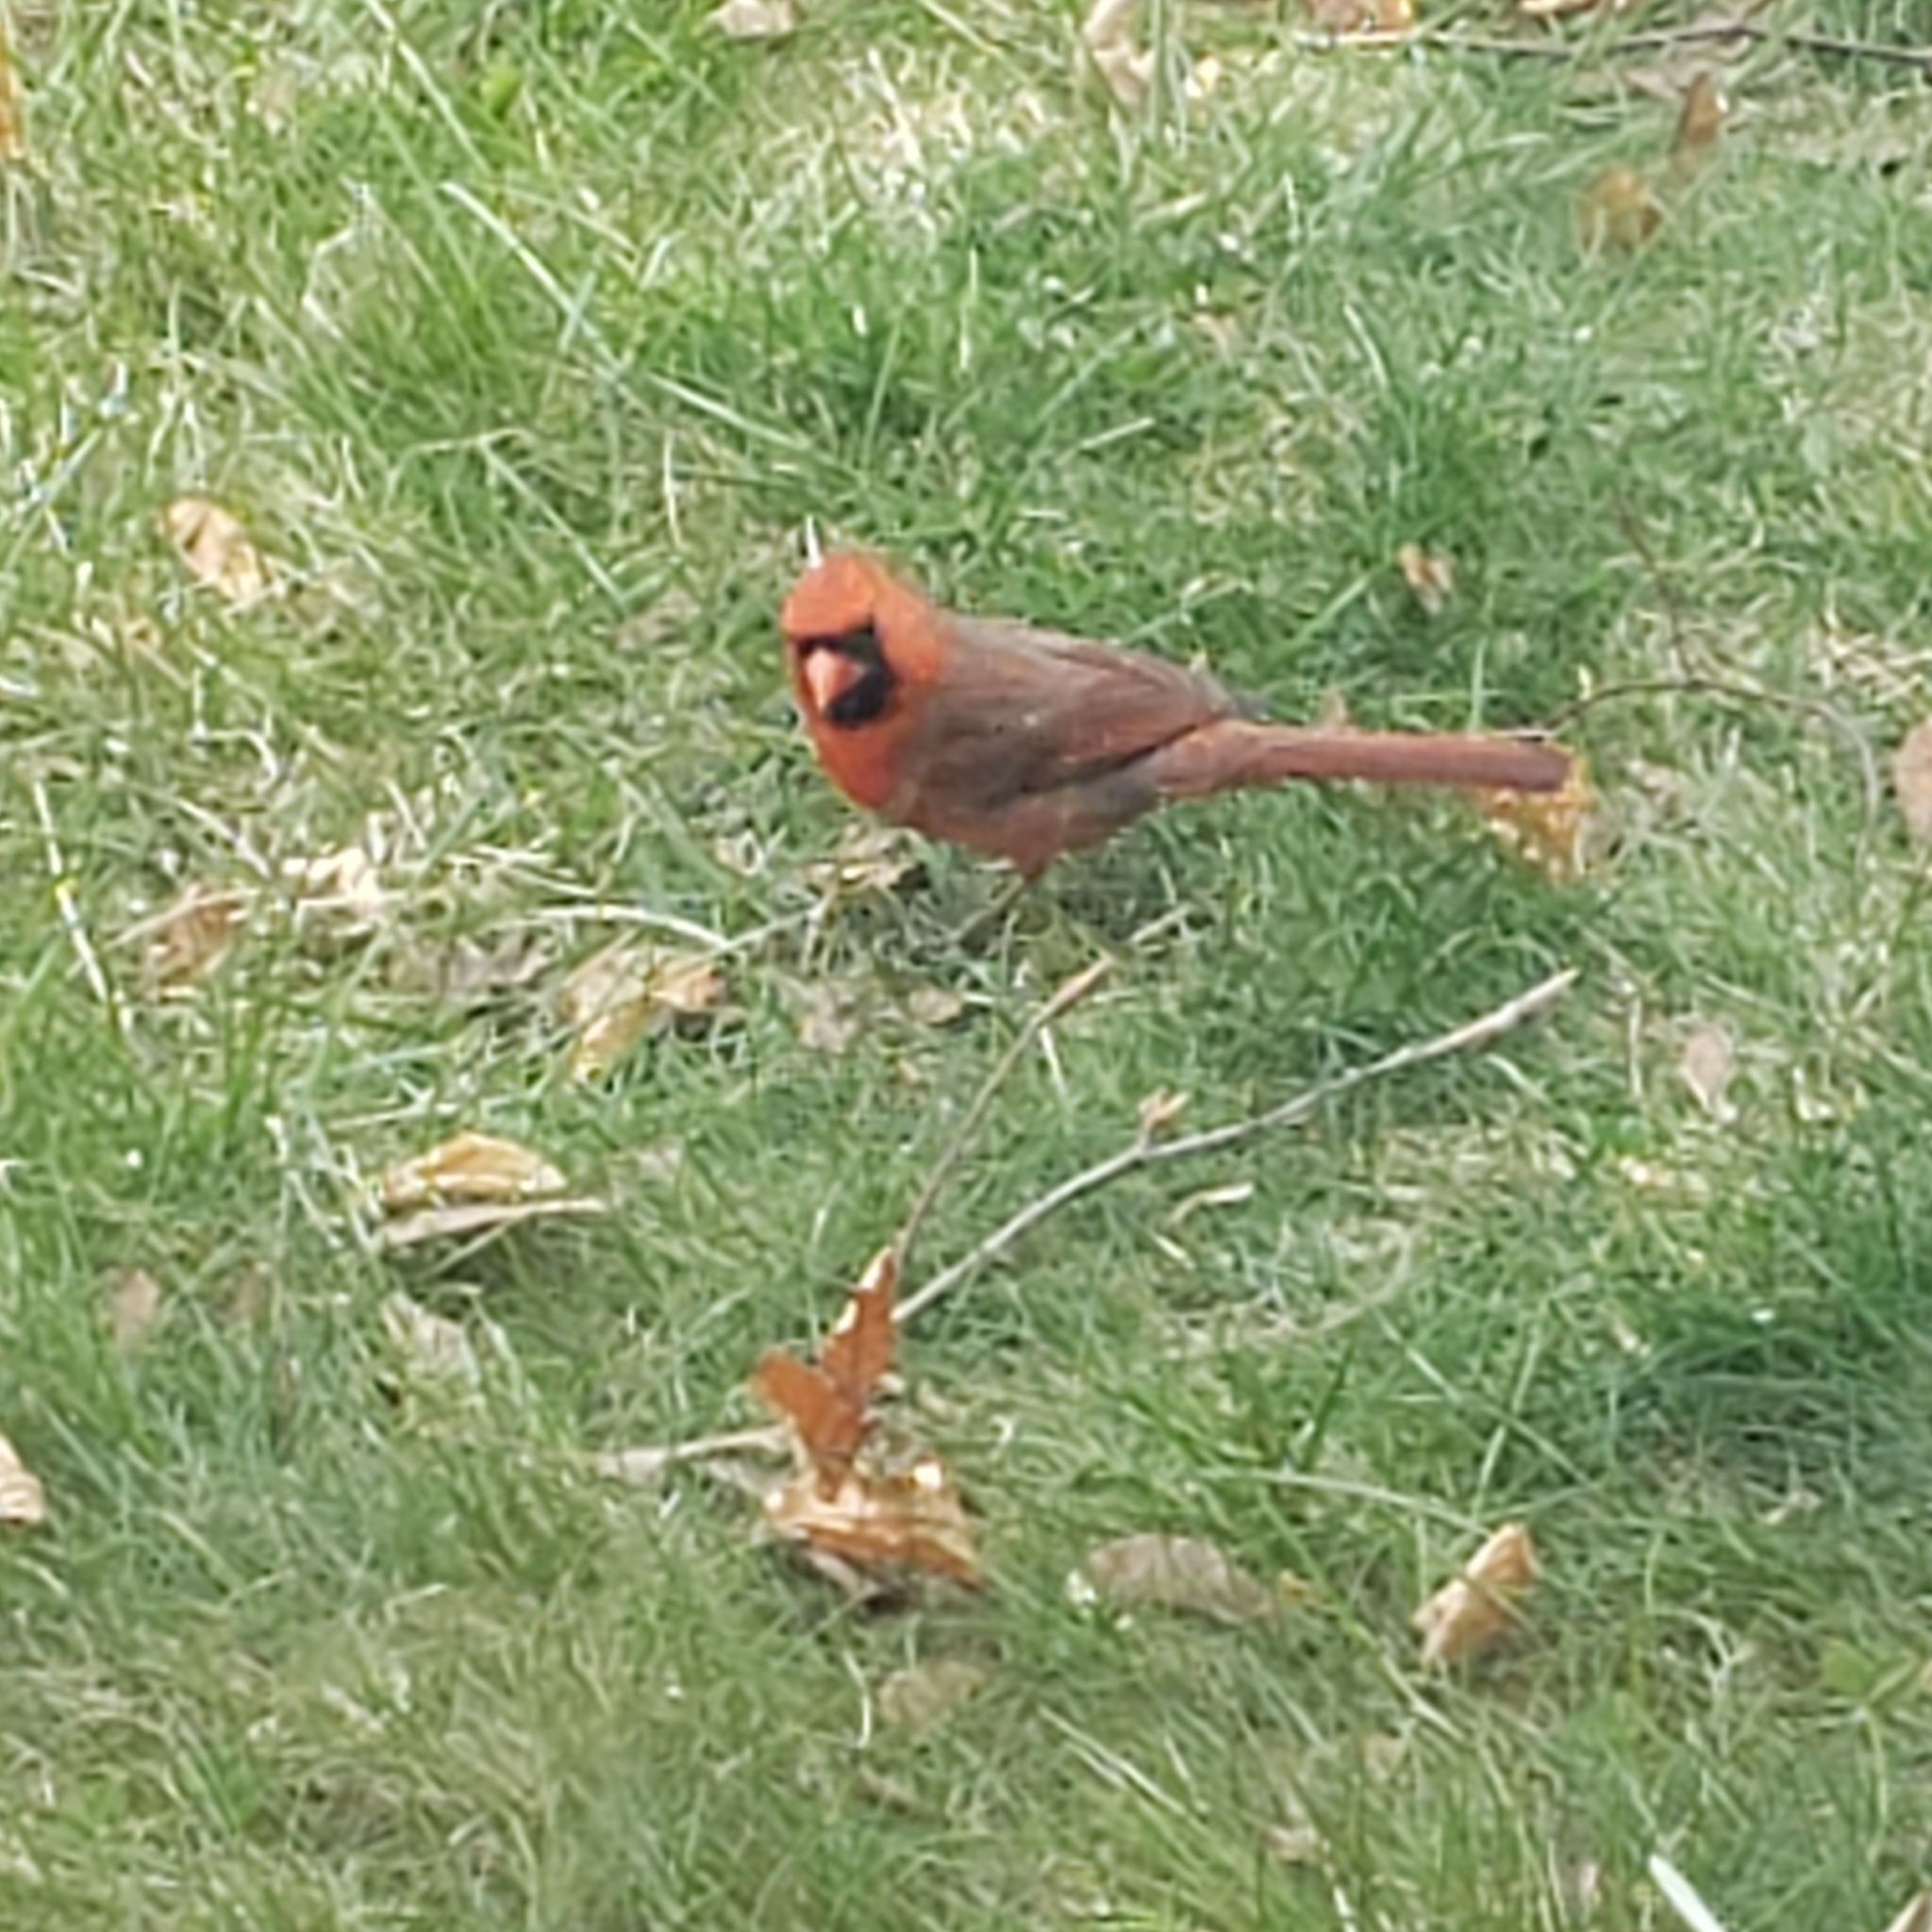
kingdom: Animalia
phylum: Chordata
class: Aves
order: Passeriformes
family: Cardinalidae
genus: Cardinalis
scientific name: Cardinalis cardinalis
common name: Northern cardinal
